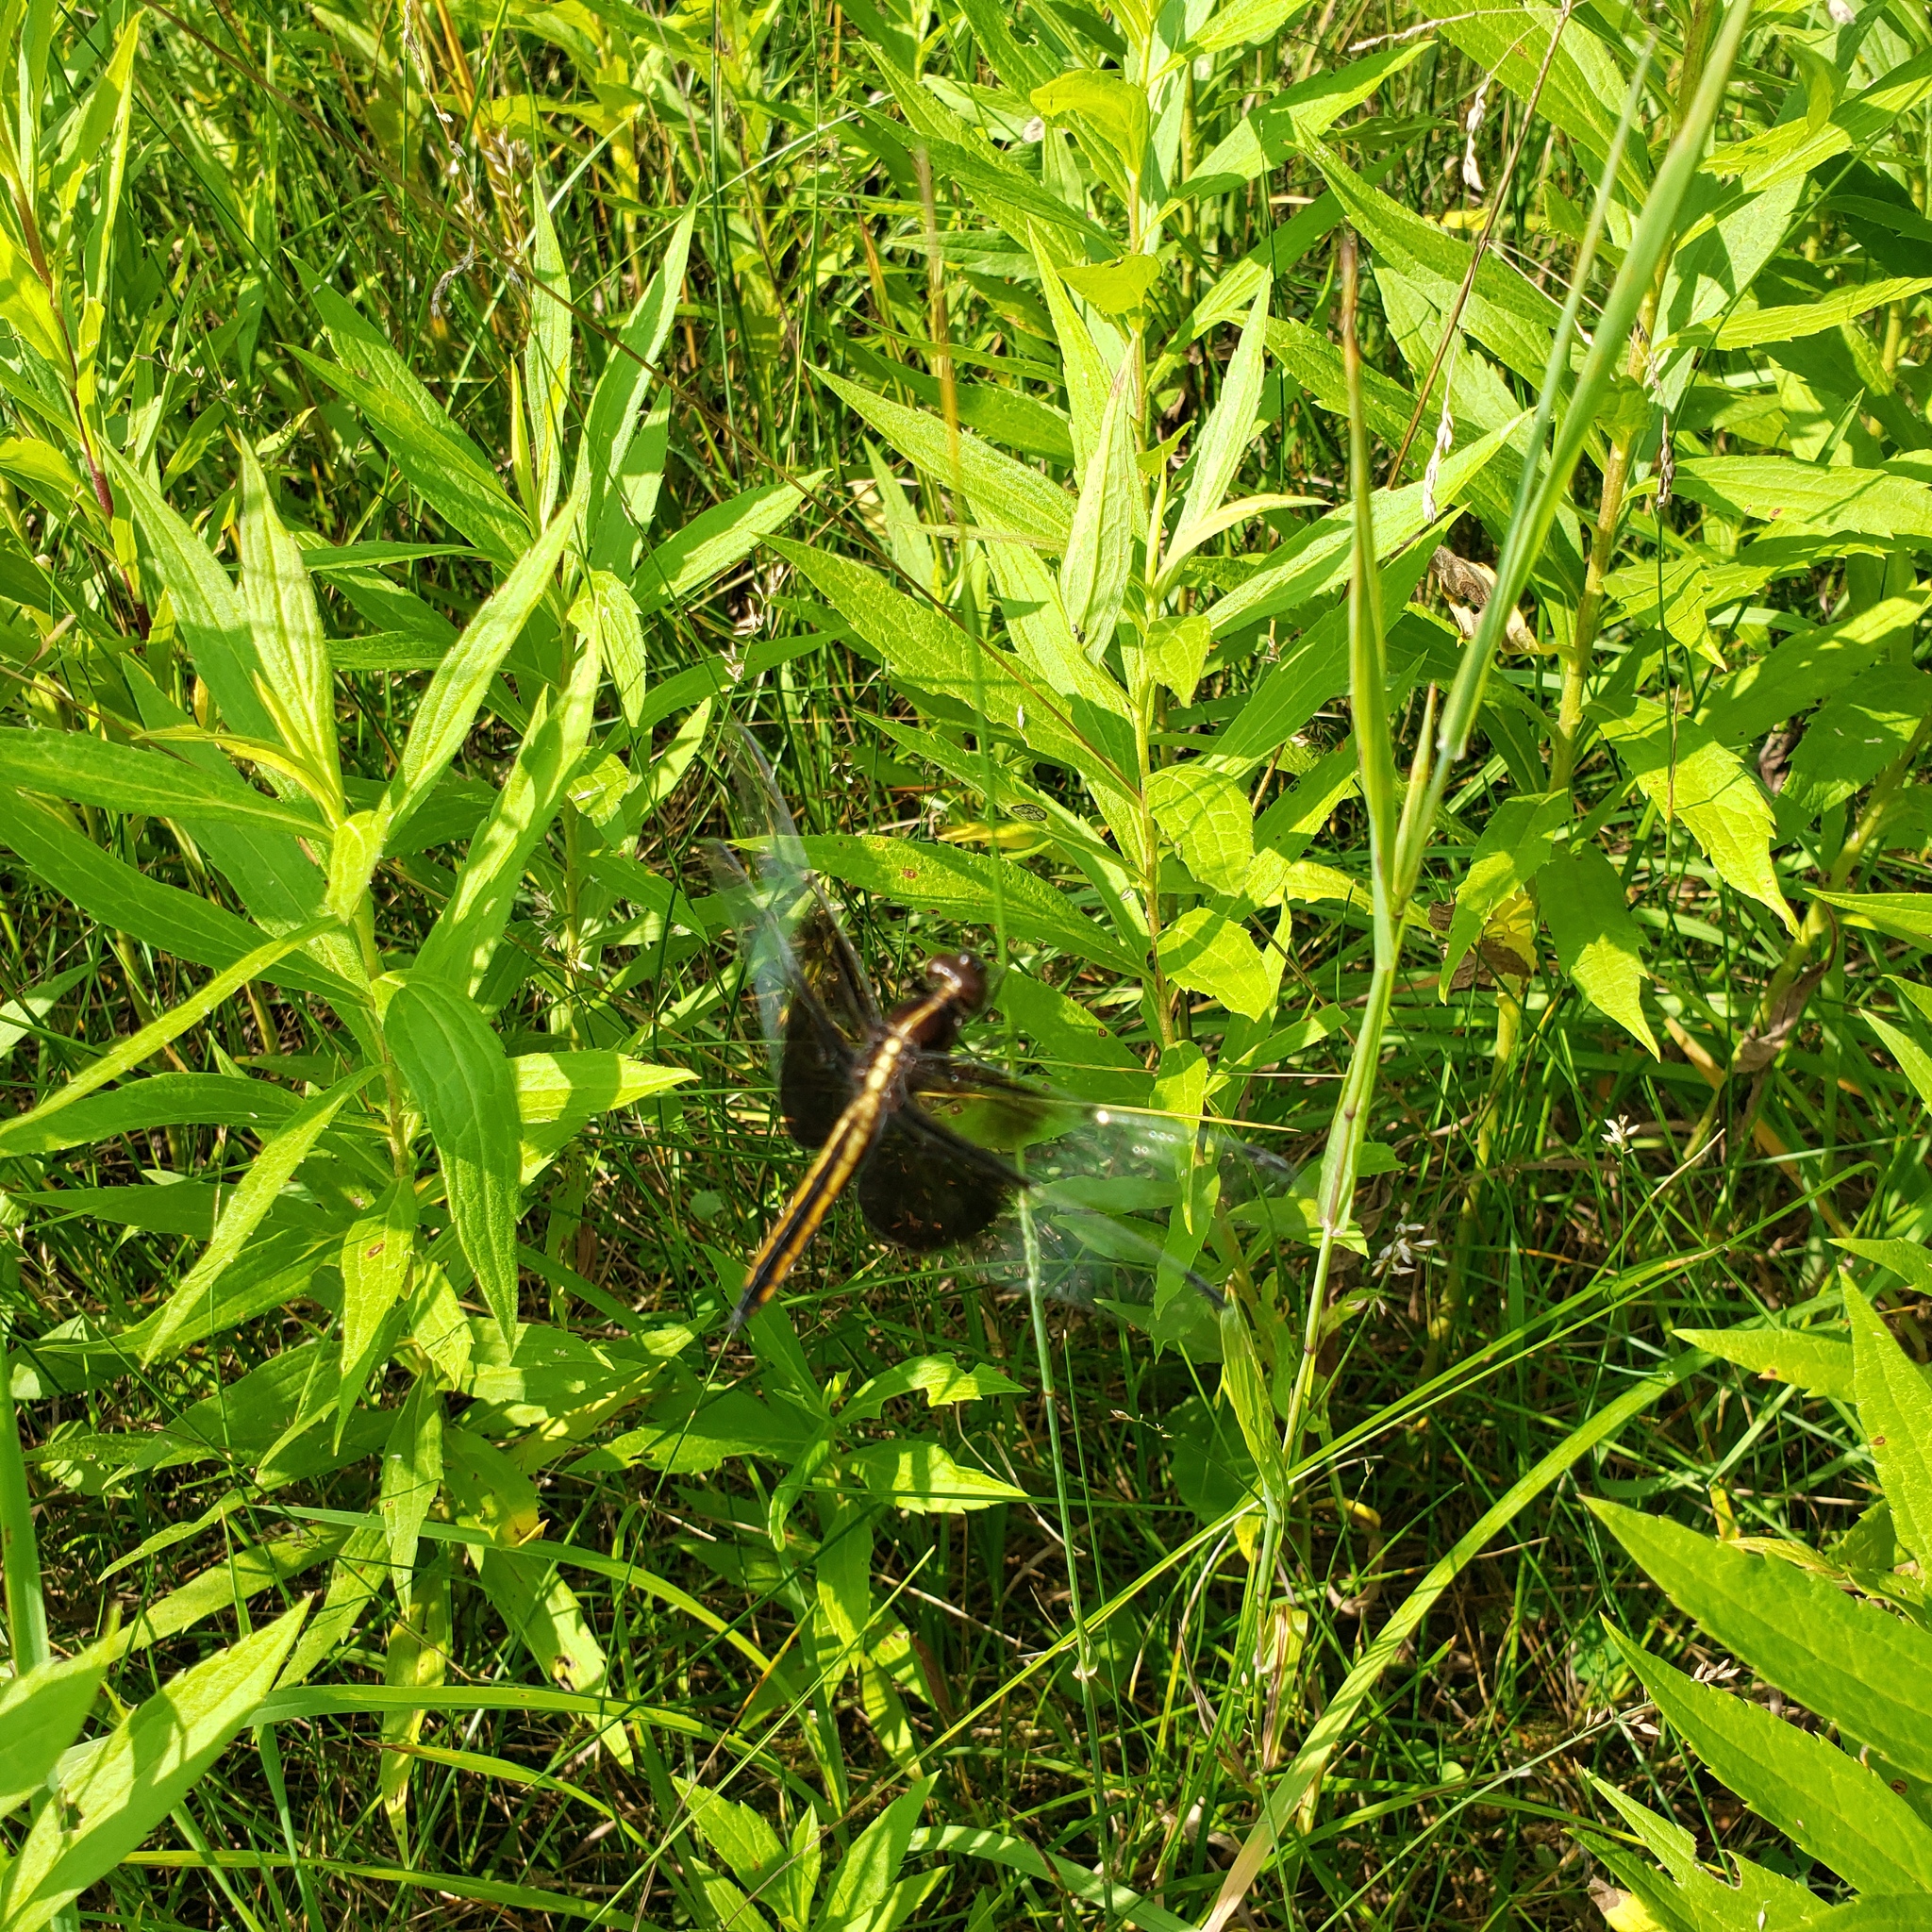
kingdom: Animalia
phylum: Arthropoda
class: Insecta
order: Odonata
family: Libellulidae
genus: Libellula
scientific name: Libellula luctuosa
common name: Widow skimmer
